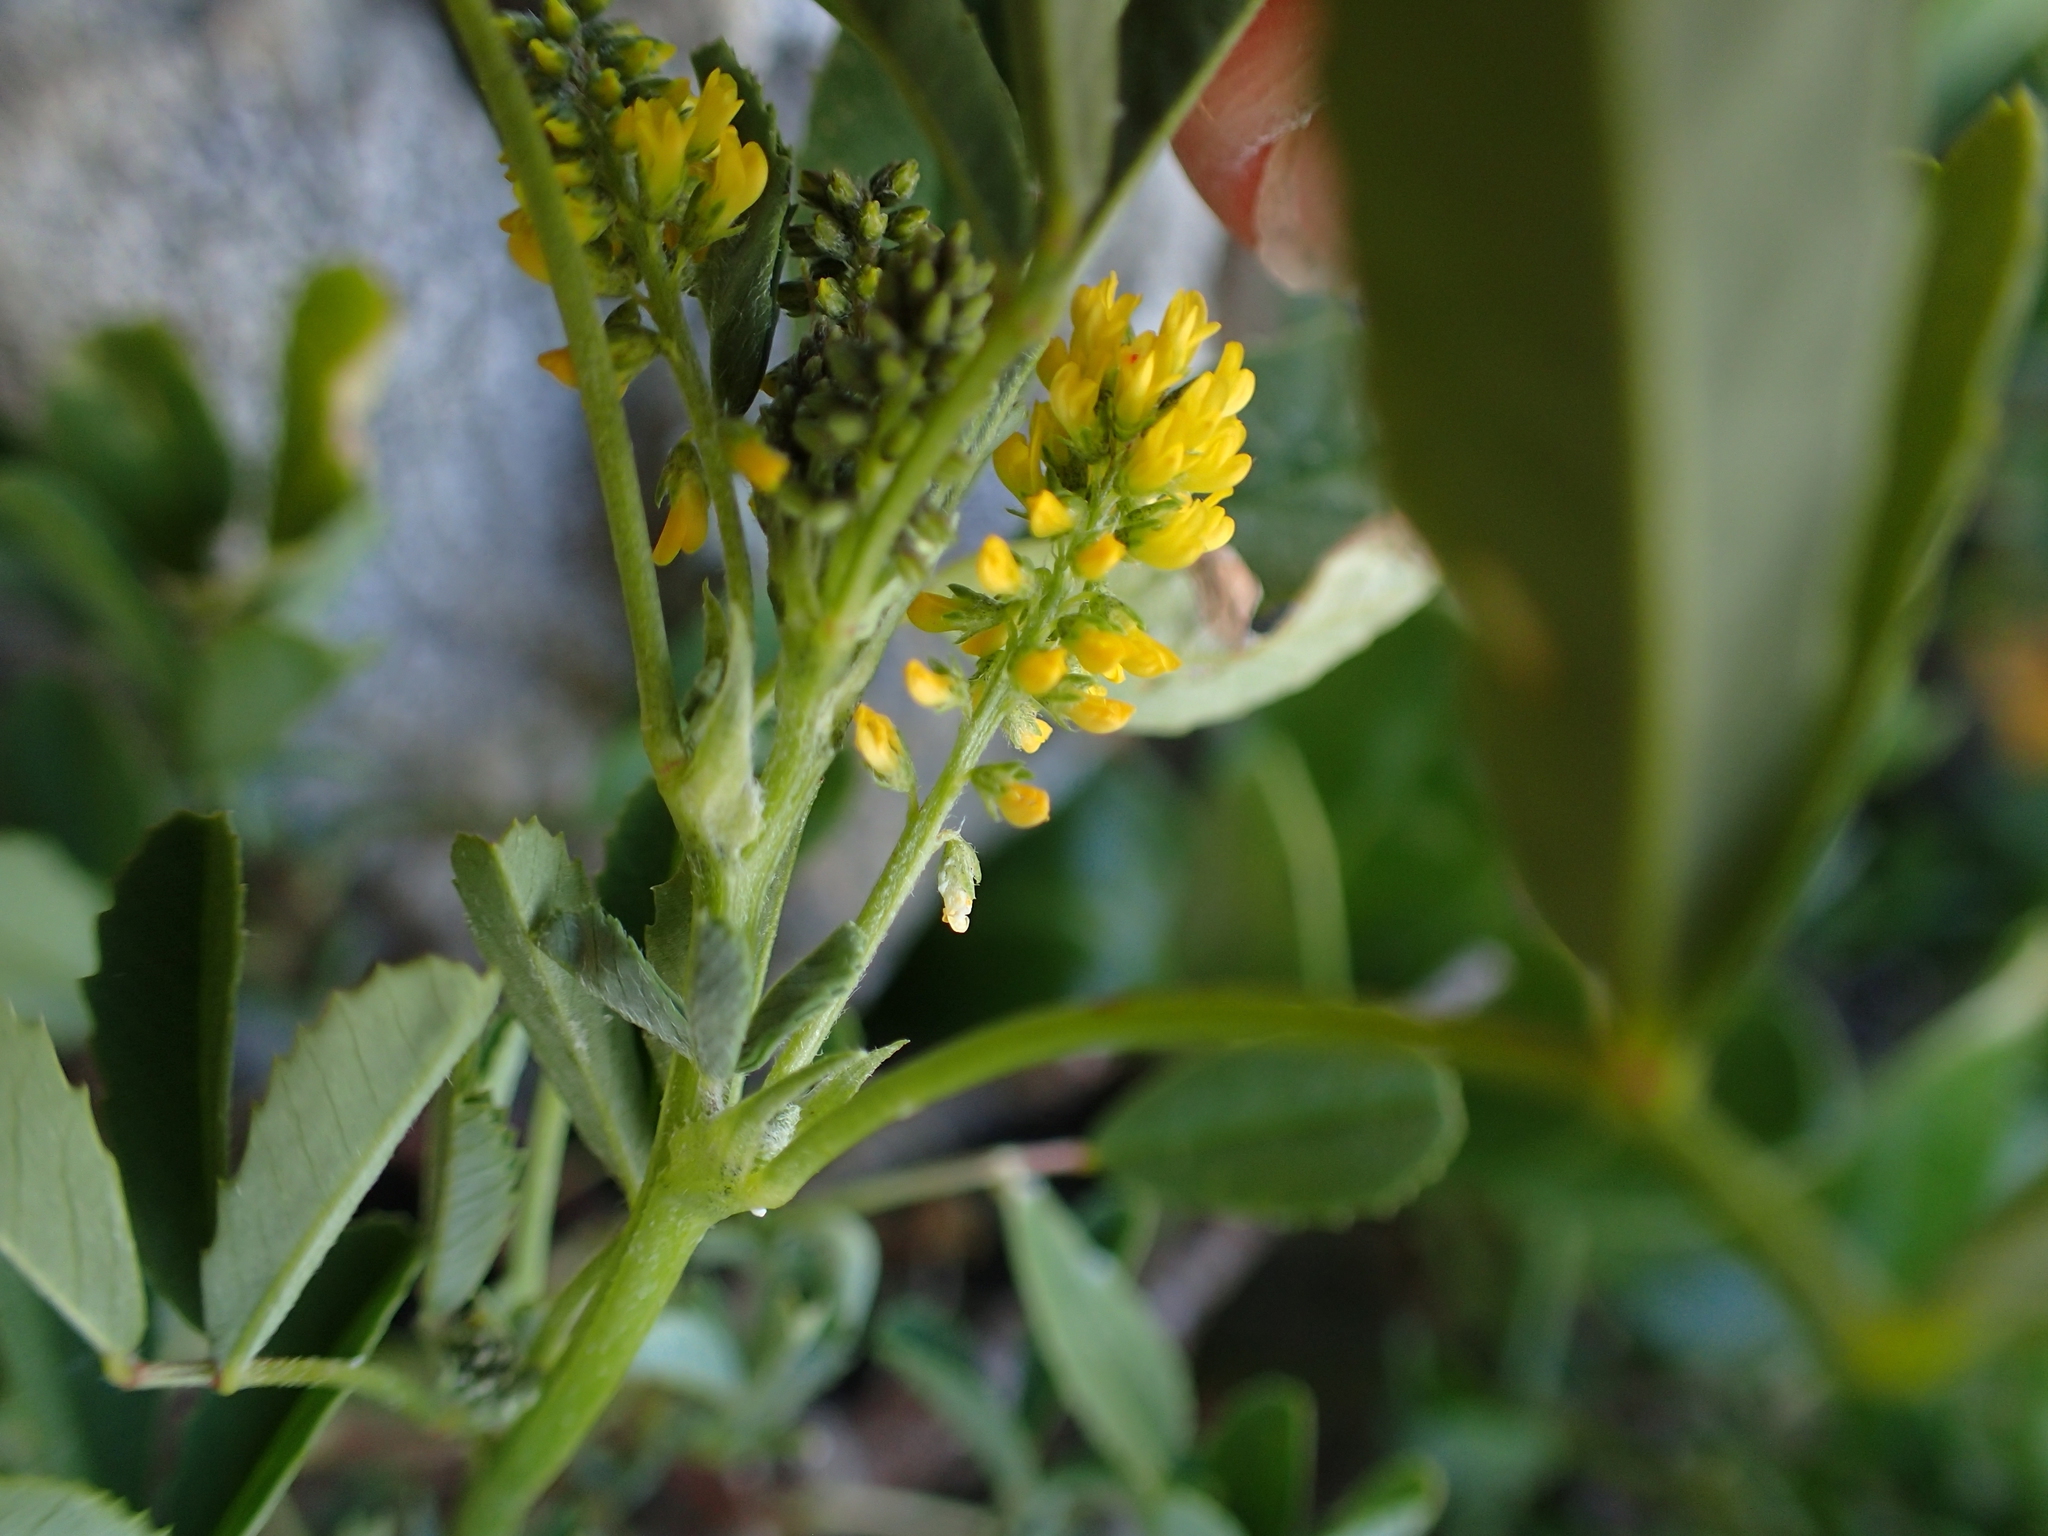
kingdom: Plantae
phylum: Tracheophyta
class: Magnoliopsida
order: Fabales
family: Fabaceae
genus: Melilotus
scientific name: Melilotus indicus
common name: Small melilot
